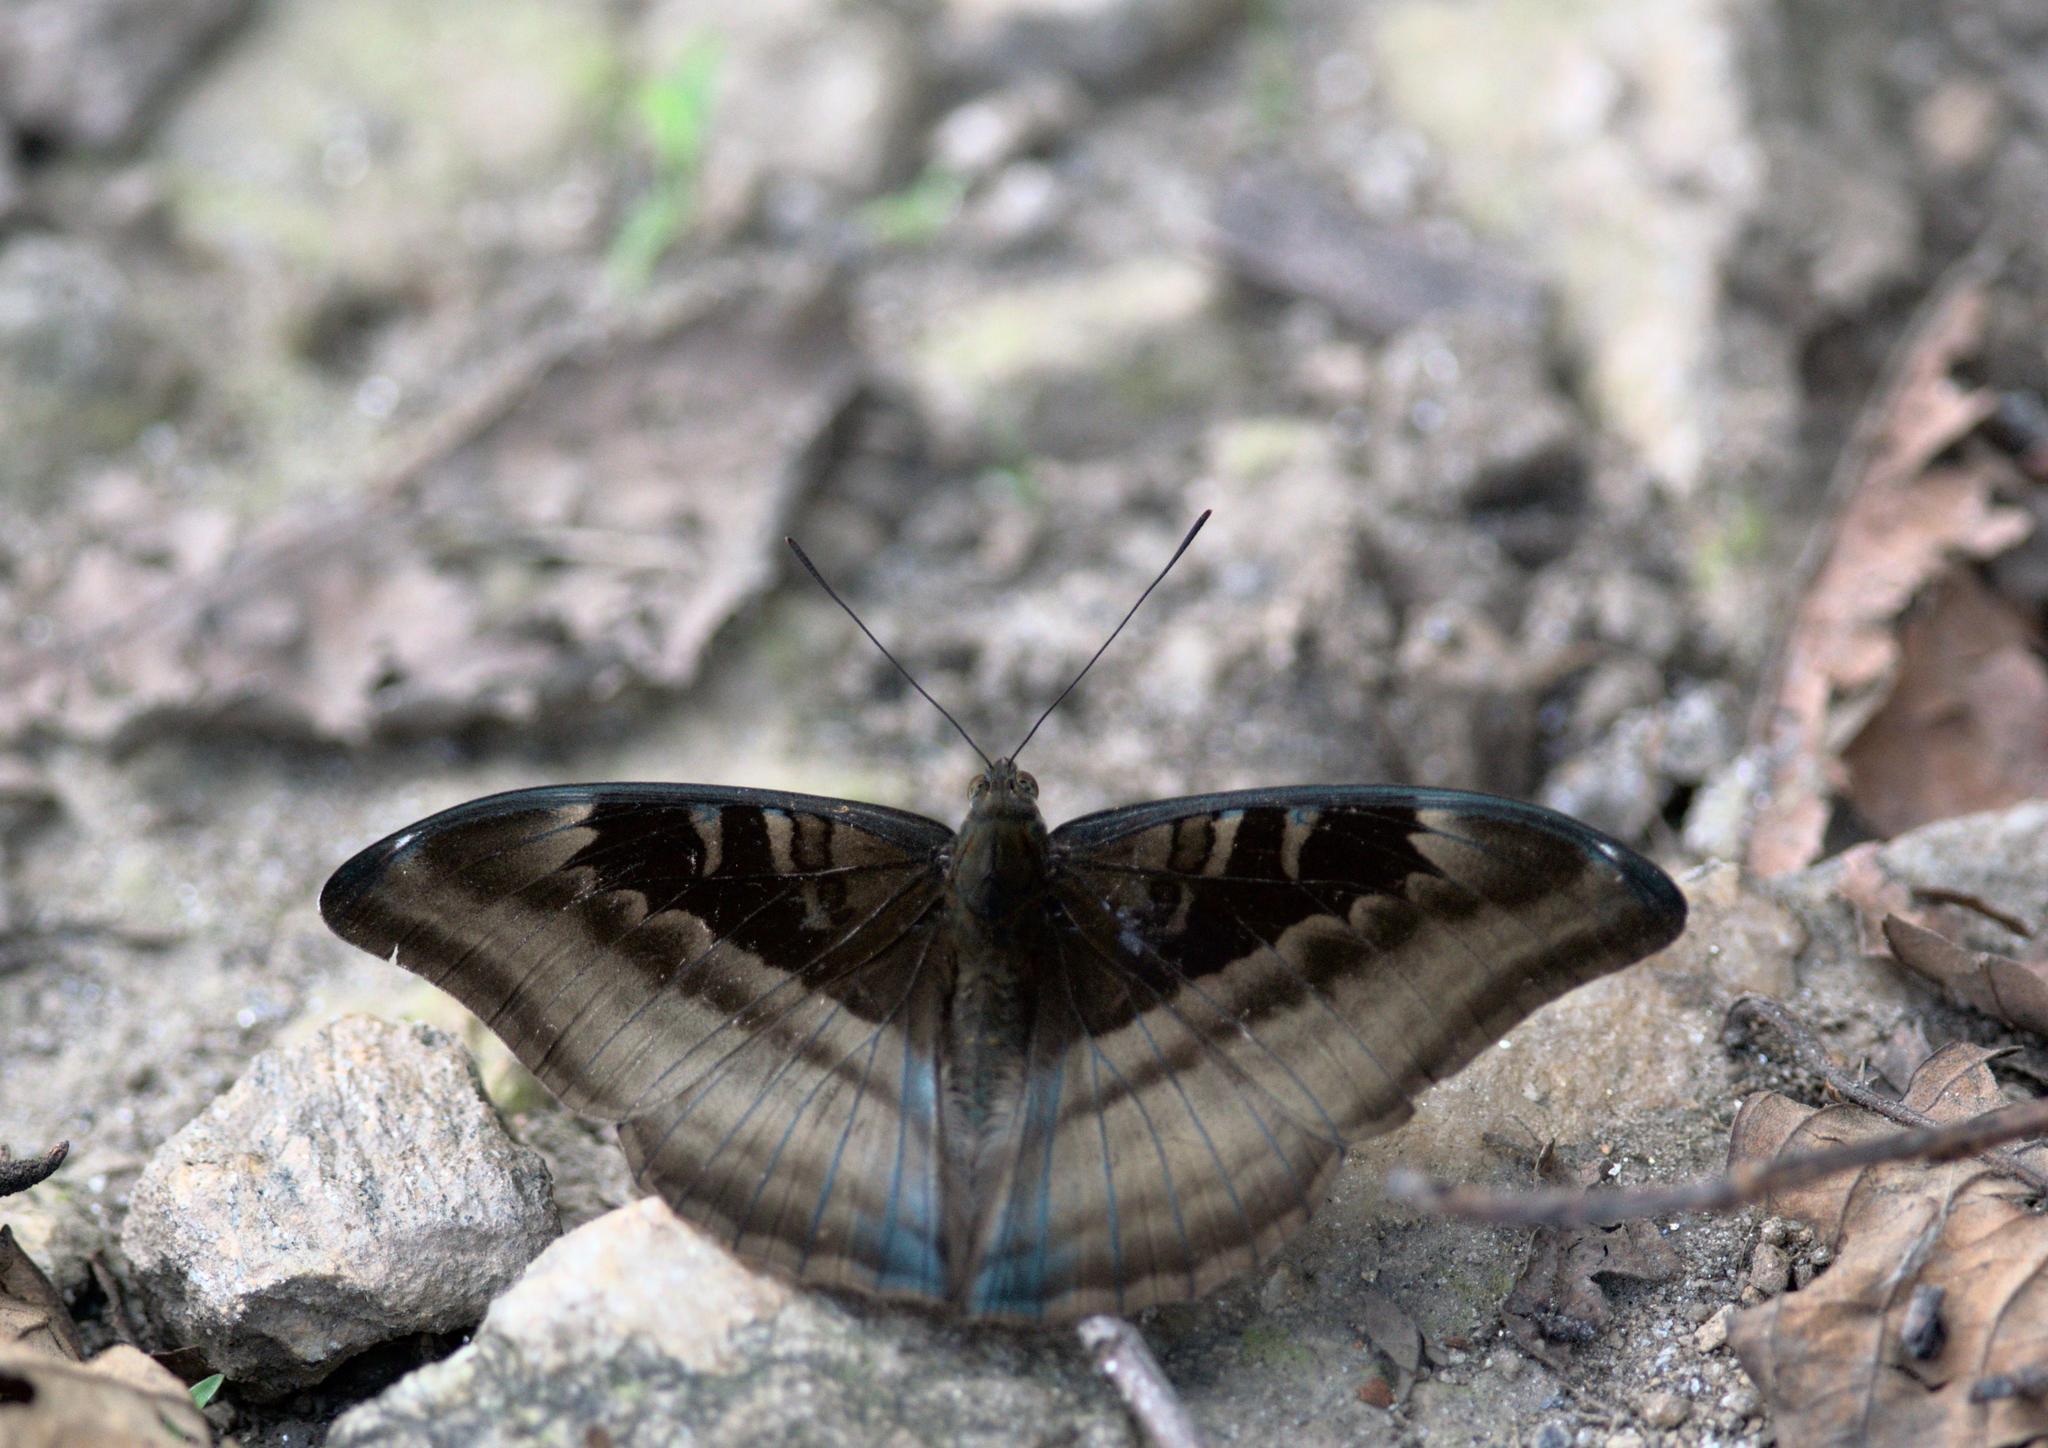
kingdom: Animalia
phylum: Arthropoda
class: Insecta
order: Lepidoptera
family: Nymphalidae
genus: Limenitis
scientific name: Limenitis Auzakia danava
